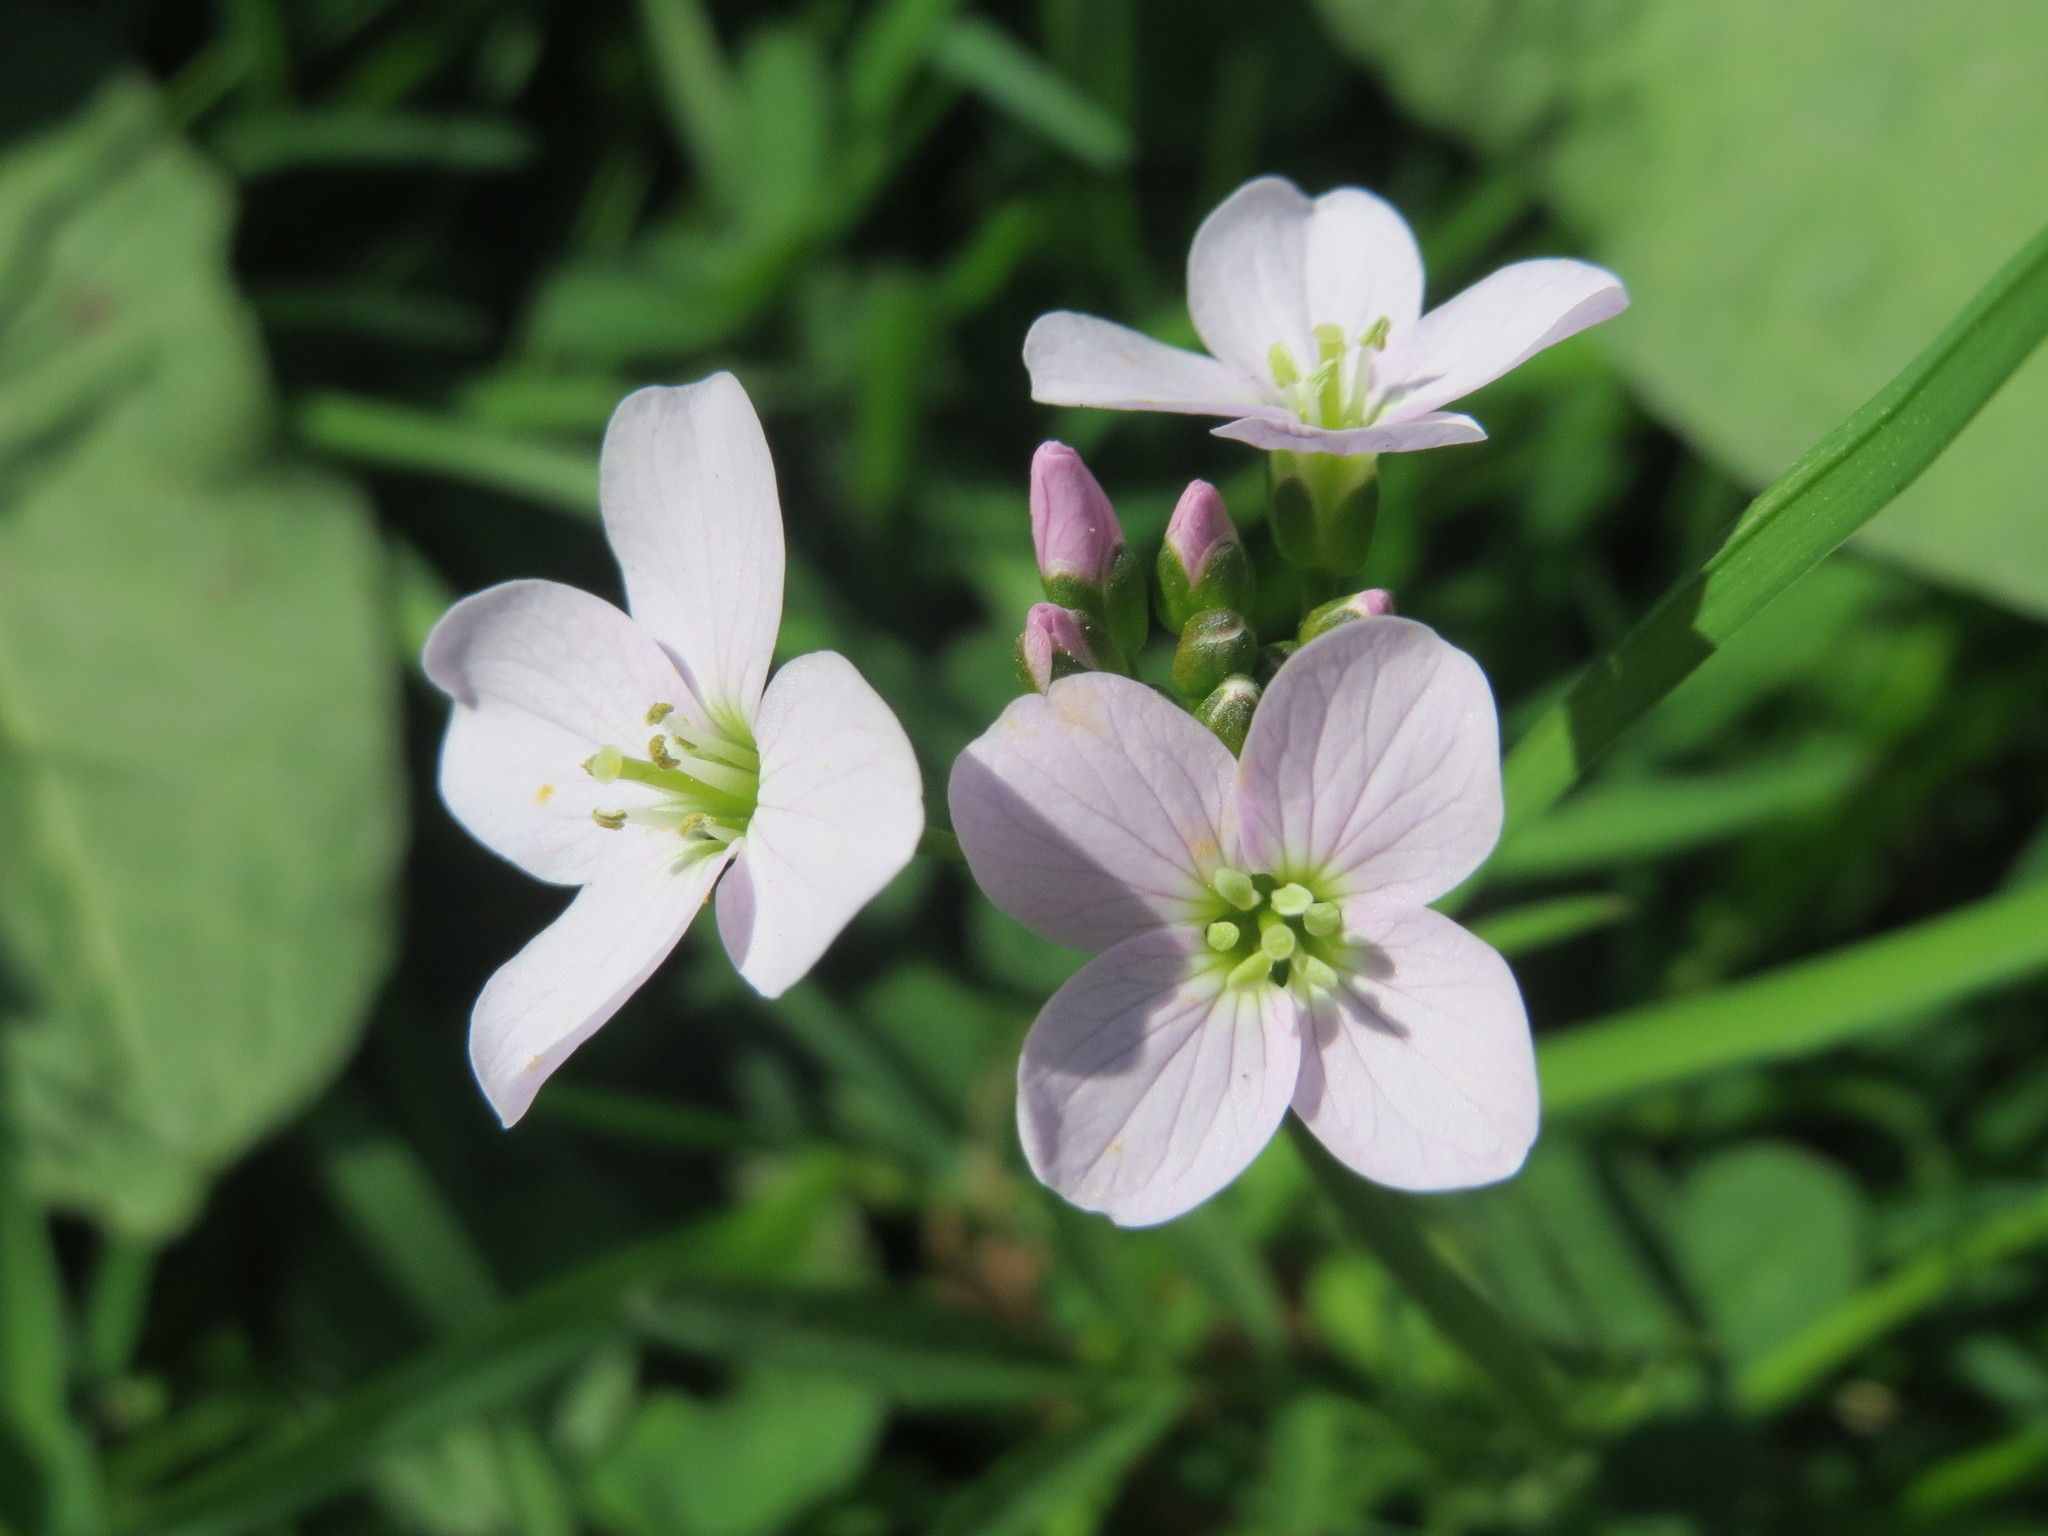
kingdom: Plantae
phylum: Tracheophyta
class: Magnoliopsida
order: Brassicales
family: Brassicaceae
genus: Cardamine
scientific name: Cardamine pratensis
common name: Cuckoo flower
